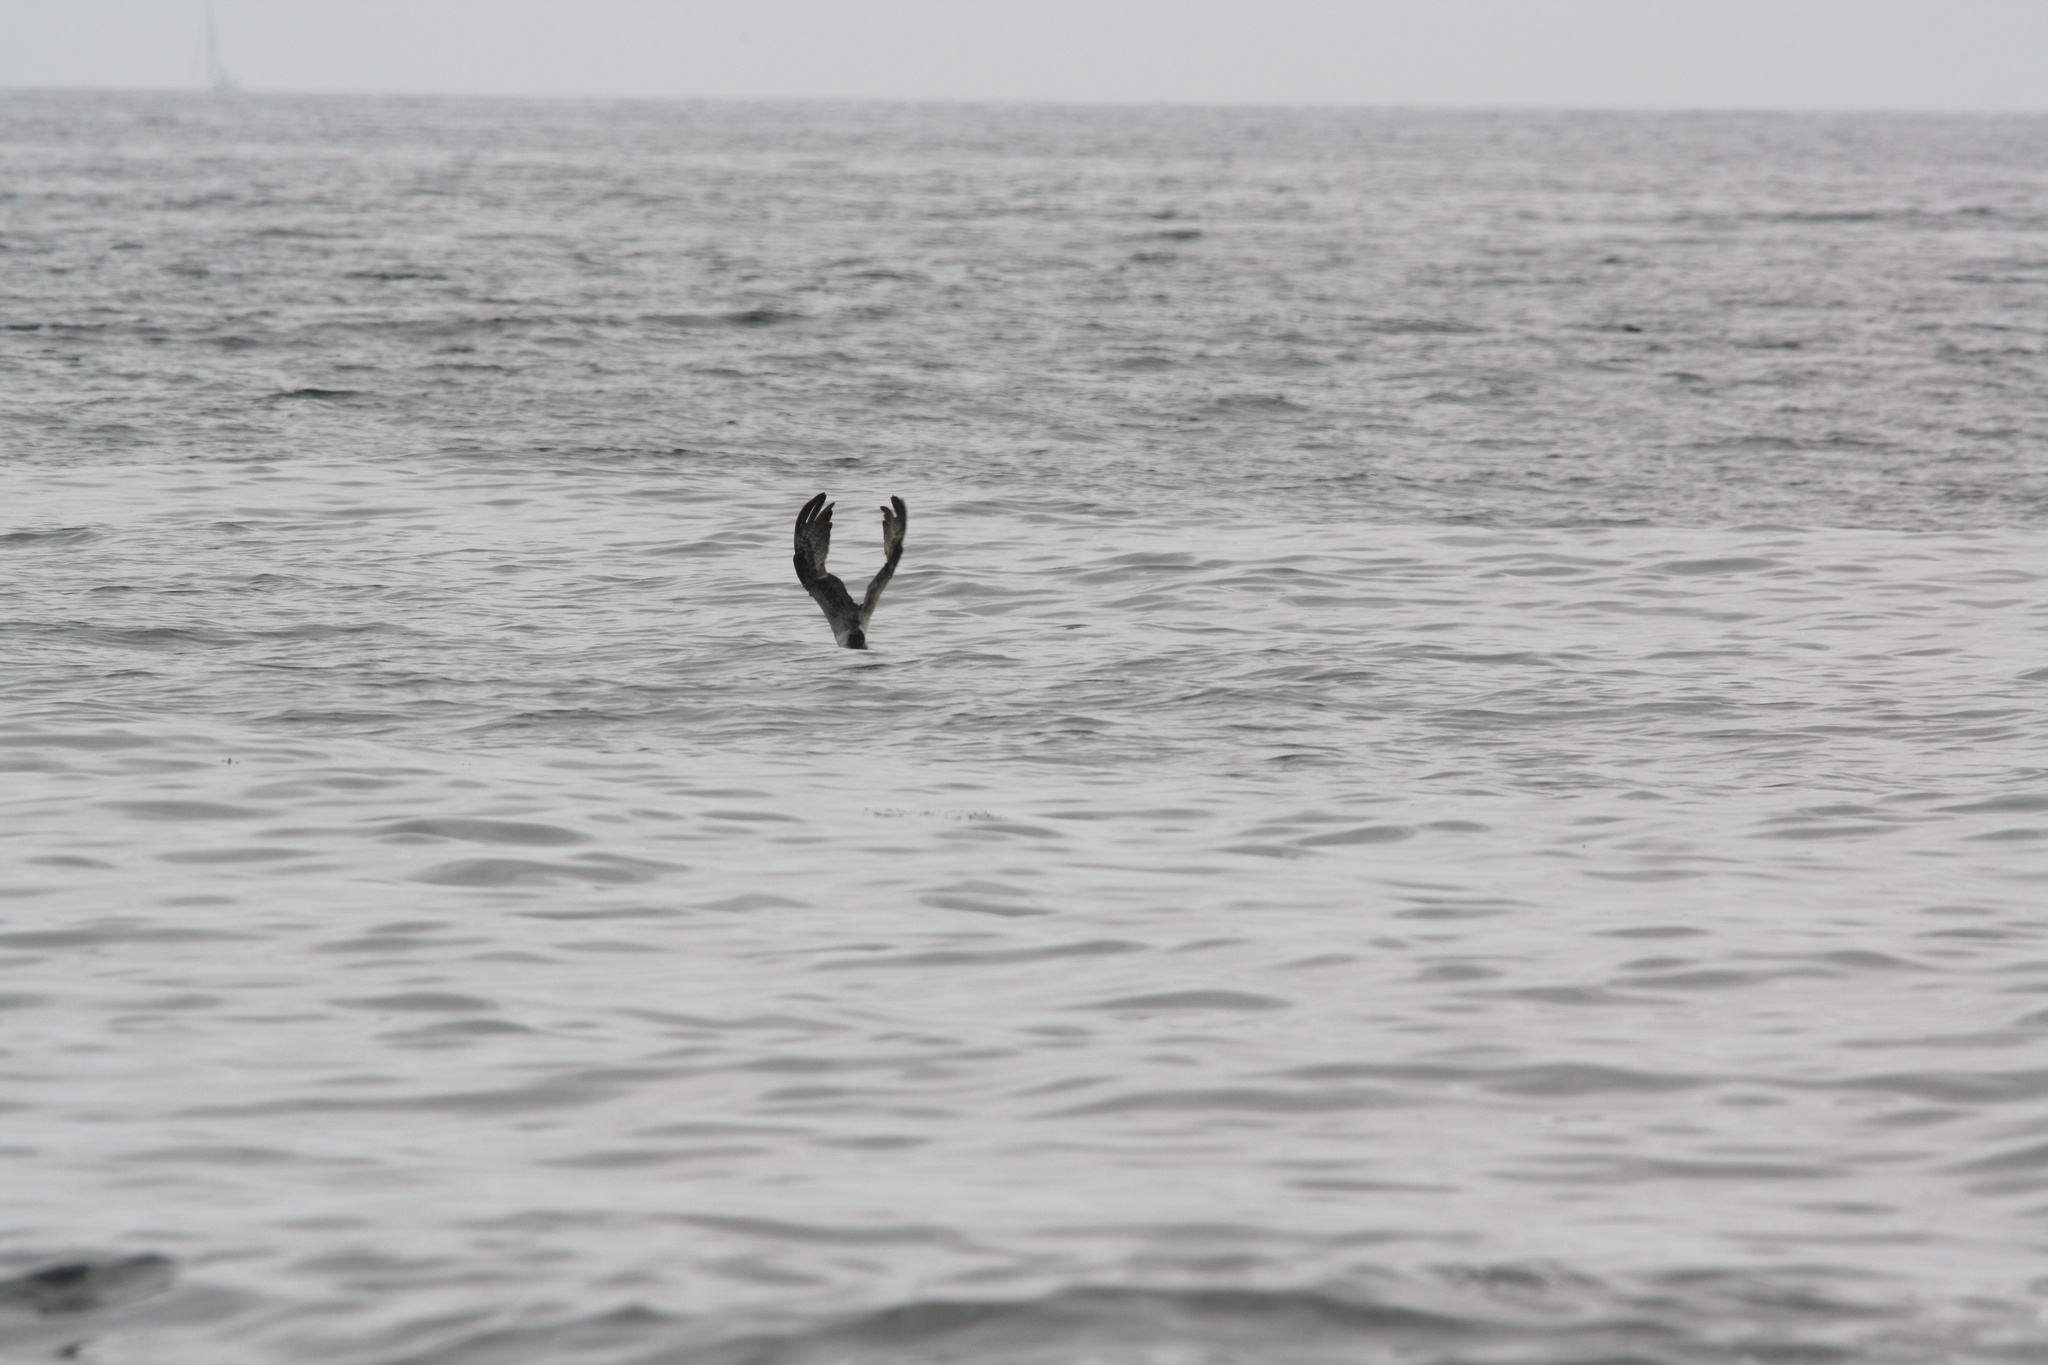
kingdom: Animalia
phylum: Chordata
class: Aves
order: Accipitriformes
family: Pandionidae
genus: Pandion
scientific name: Pandion haliaetus
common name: Osprey
